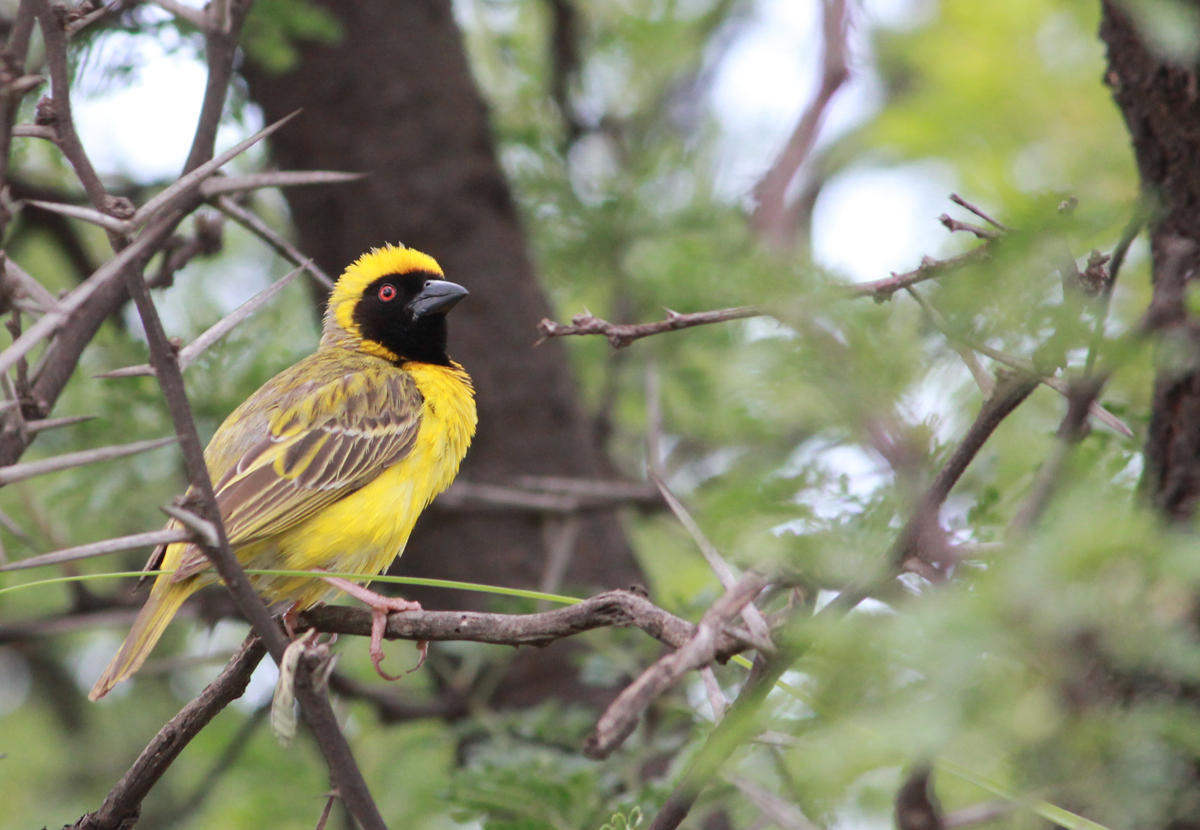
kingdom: Animalia
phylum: Chordata
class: Aves
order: Passeriformes
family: Ploceidae
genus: Ploceus
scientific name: Ploceus velatus
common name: Southern masked weaver
